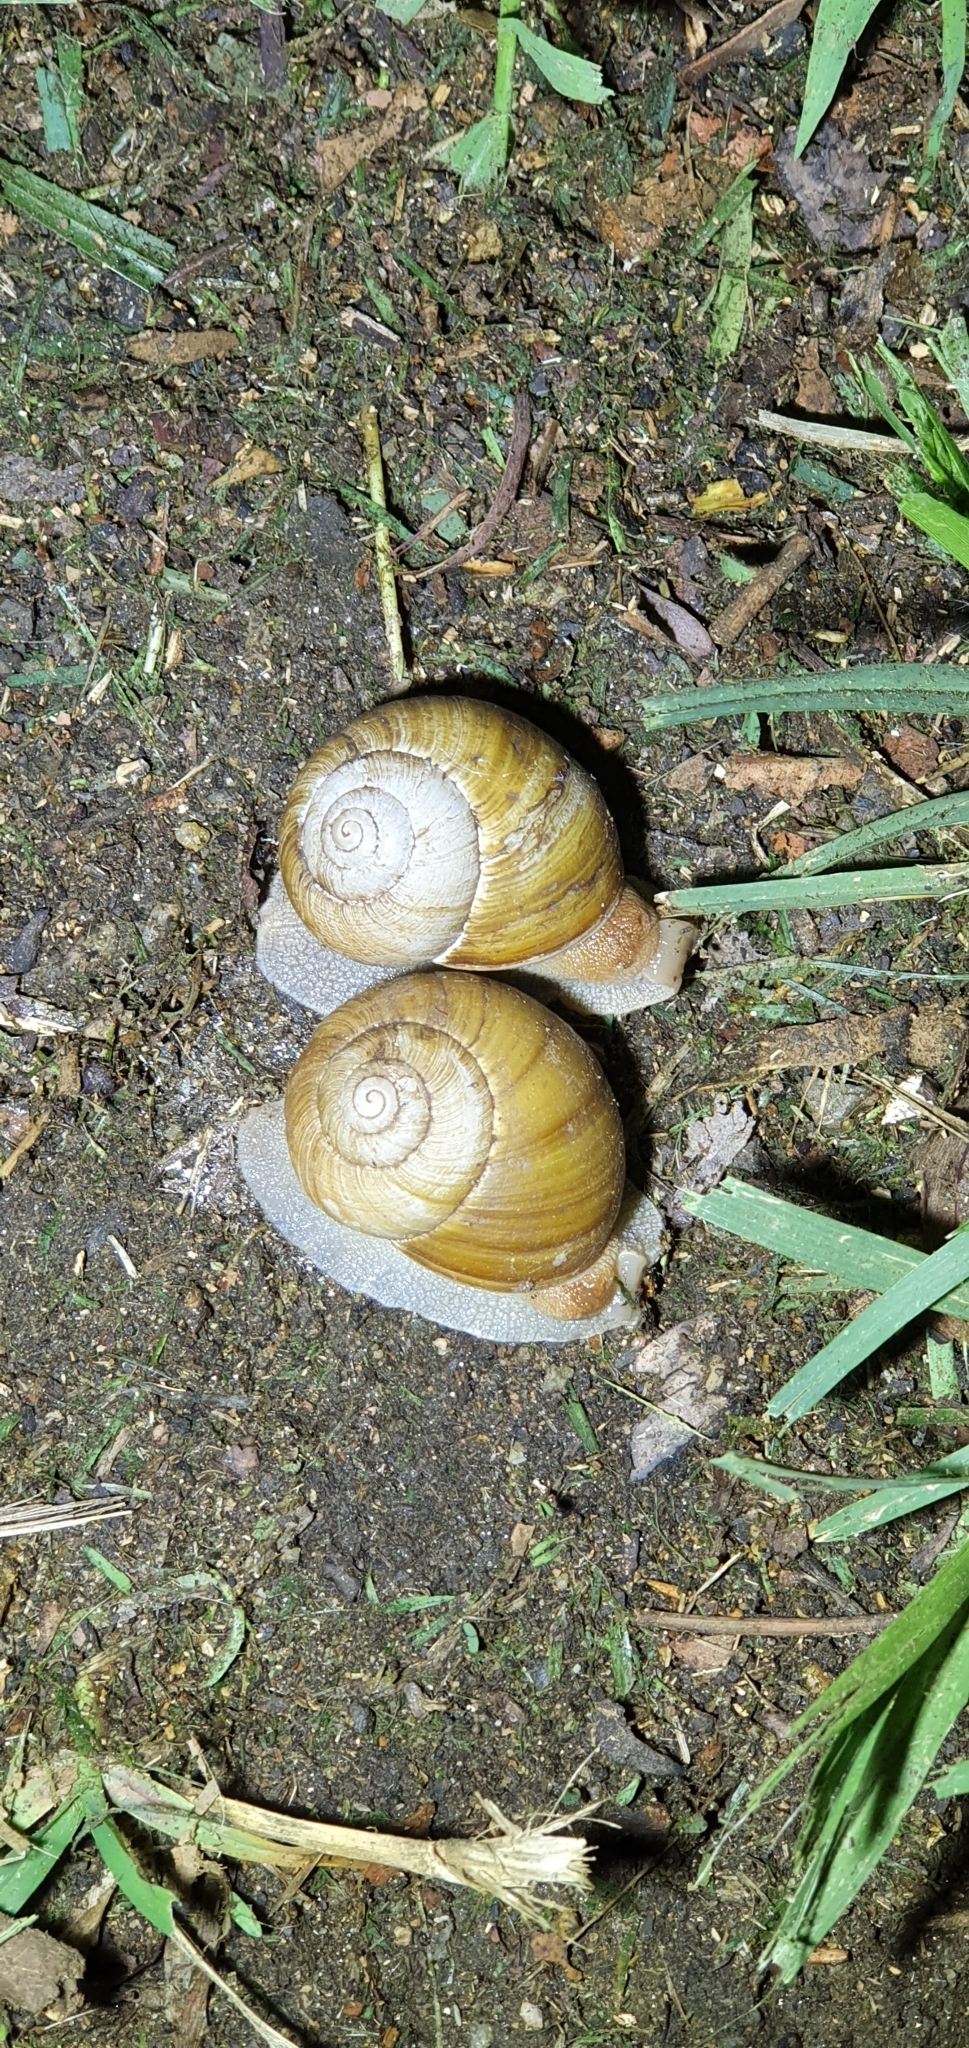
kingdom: Animalia
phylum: Mollusca
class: Gastropoda
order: Stylommatophora
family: Camaenidae
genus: Xanthomelon
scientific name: Xanthomelon pachystylum
